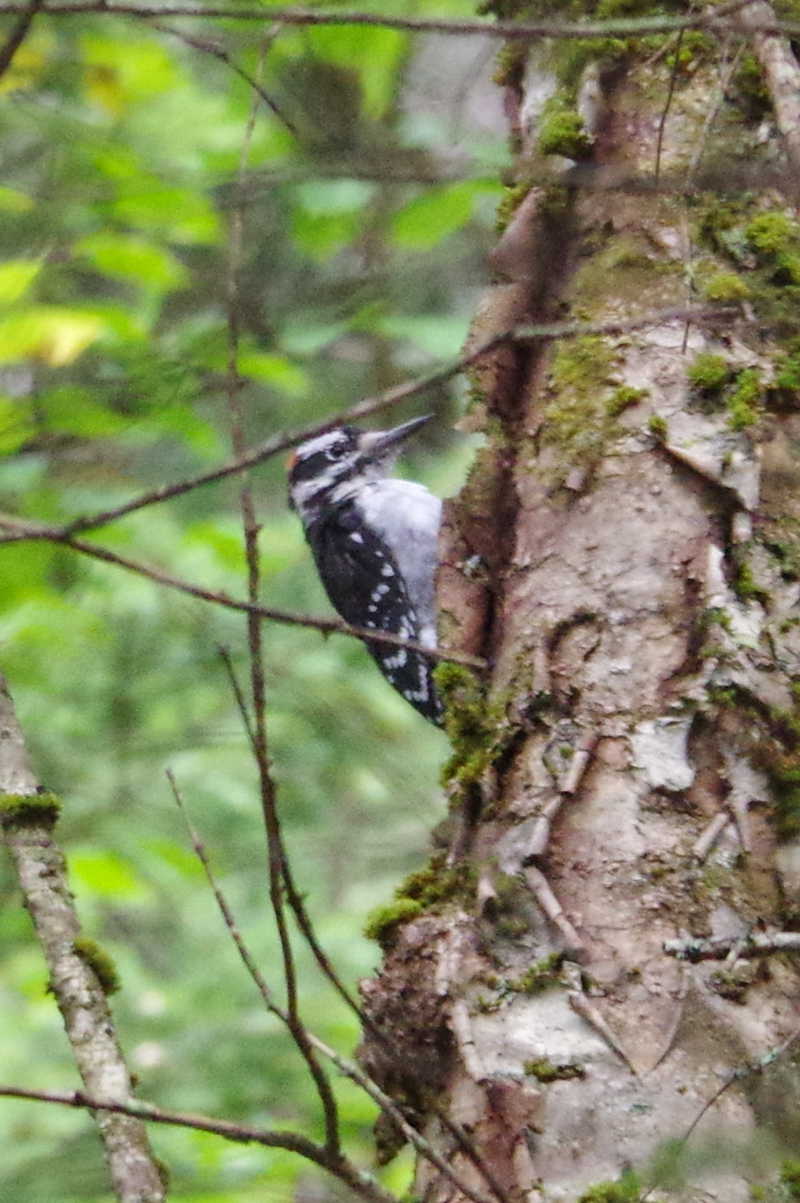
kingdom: Animalia
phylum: Chordata
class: Aves
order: Piciformes
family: Picidae
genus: Leuconotopicus
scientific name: Leuconotopicus villosus
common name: Hairy woodpecker
